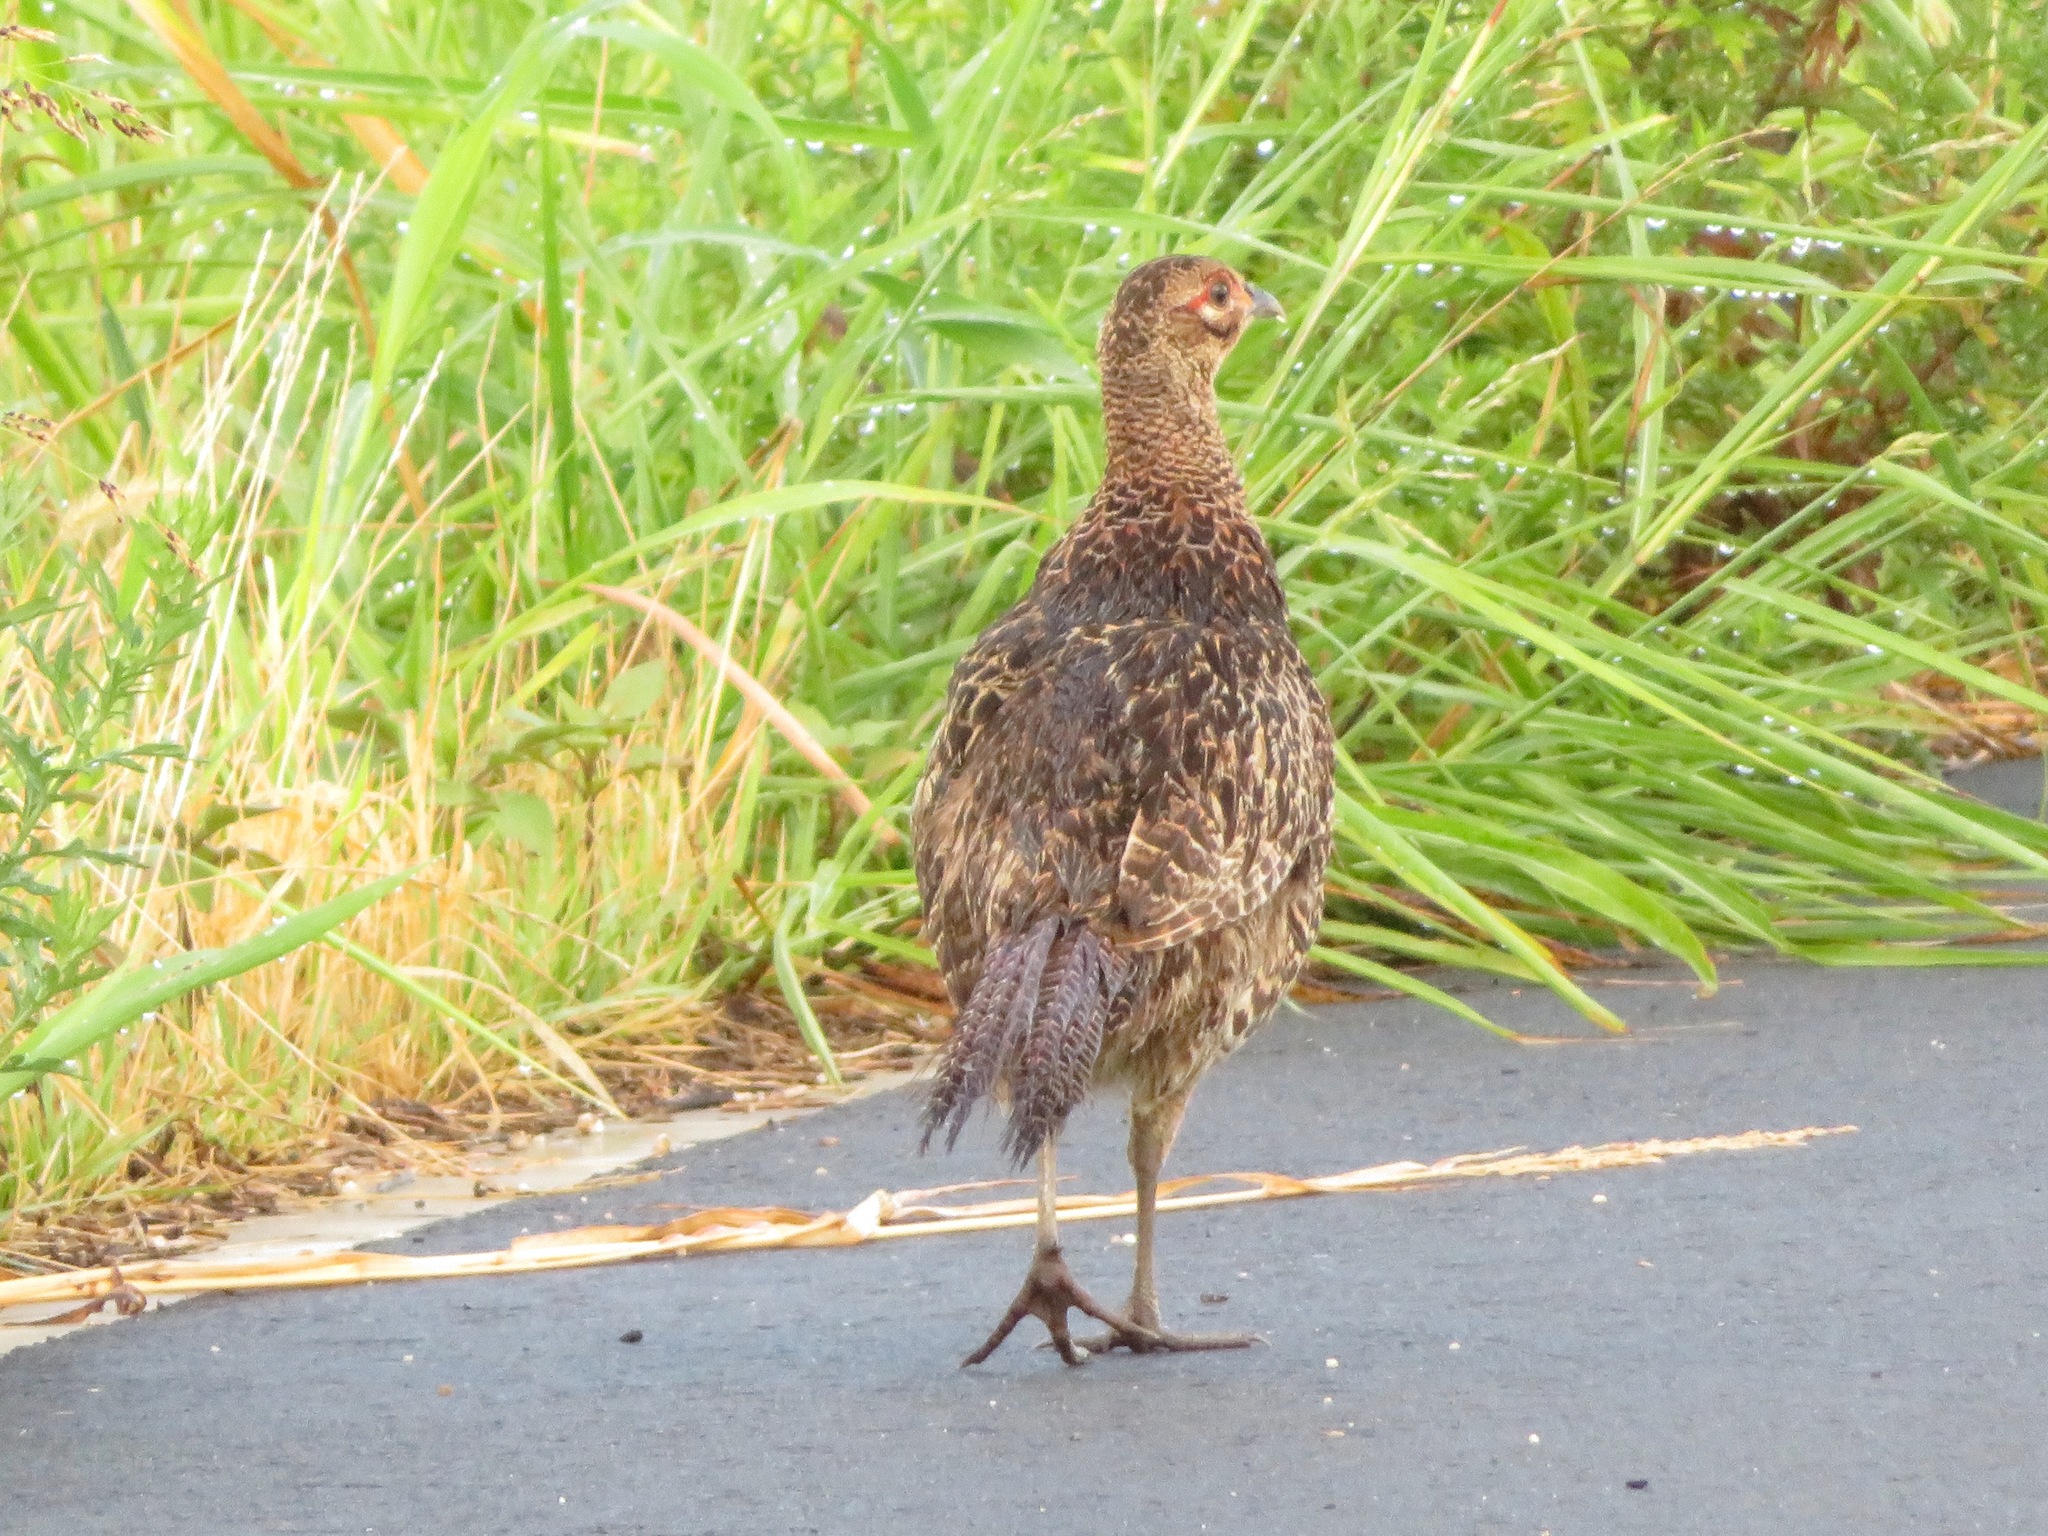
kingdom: Animalia
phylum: Chordata
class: Aves
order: Galliformes
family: Phasianidae
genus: Phasianus
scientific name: Phasianus versicolor
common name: Green pheasant
